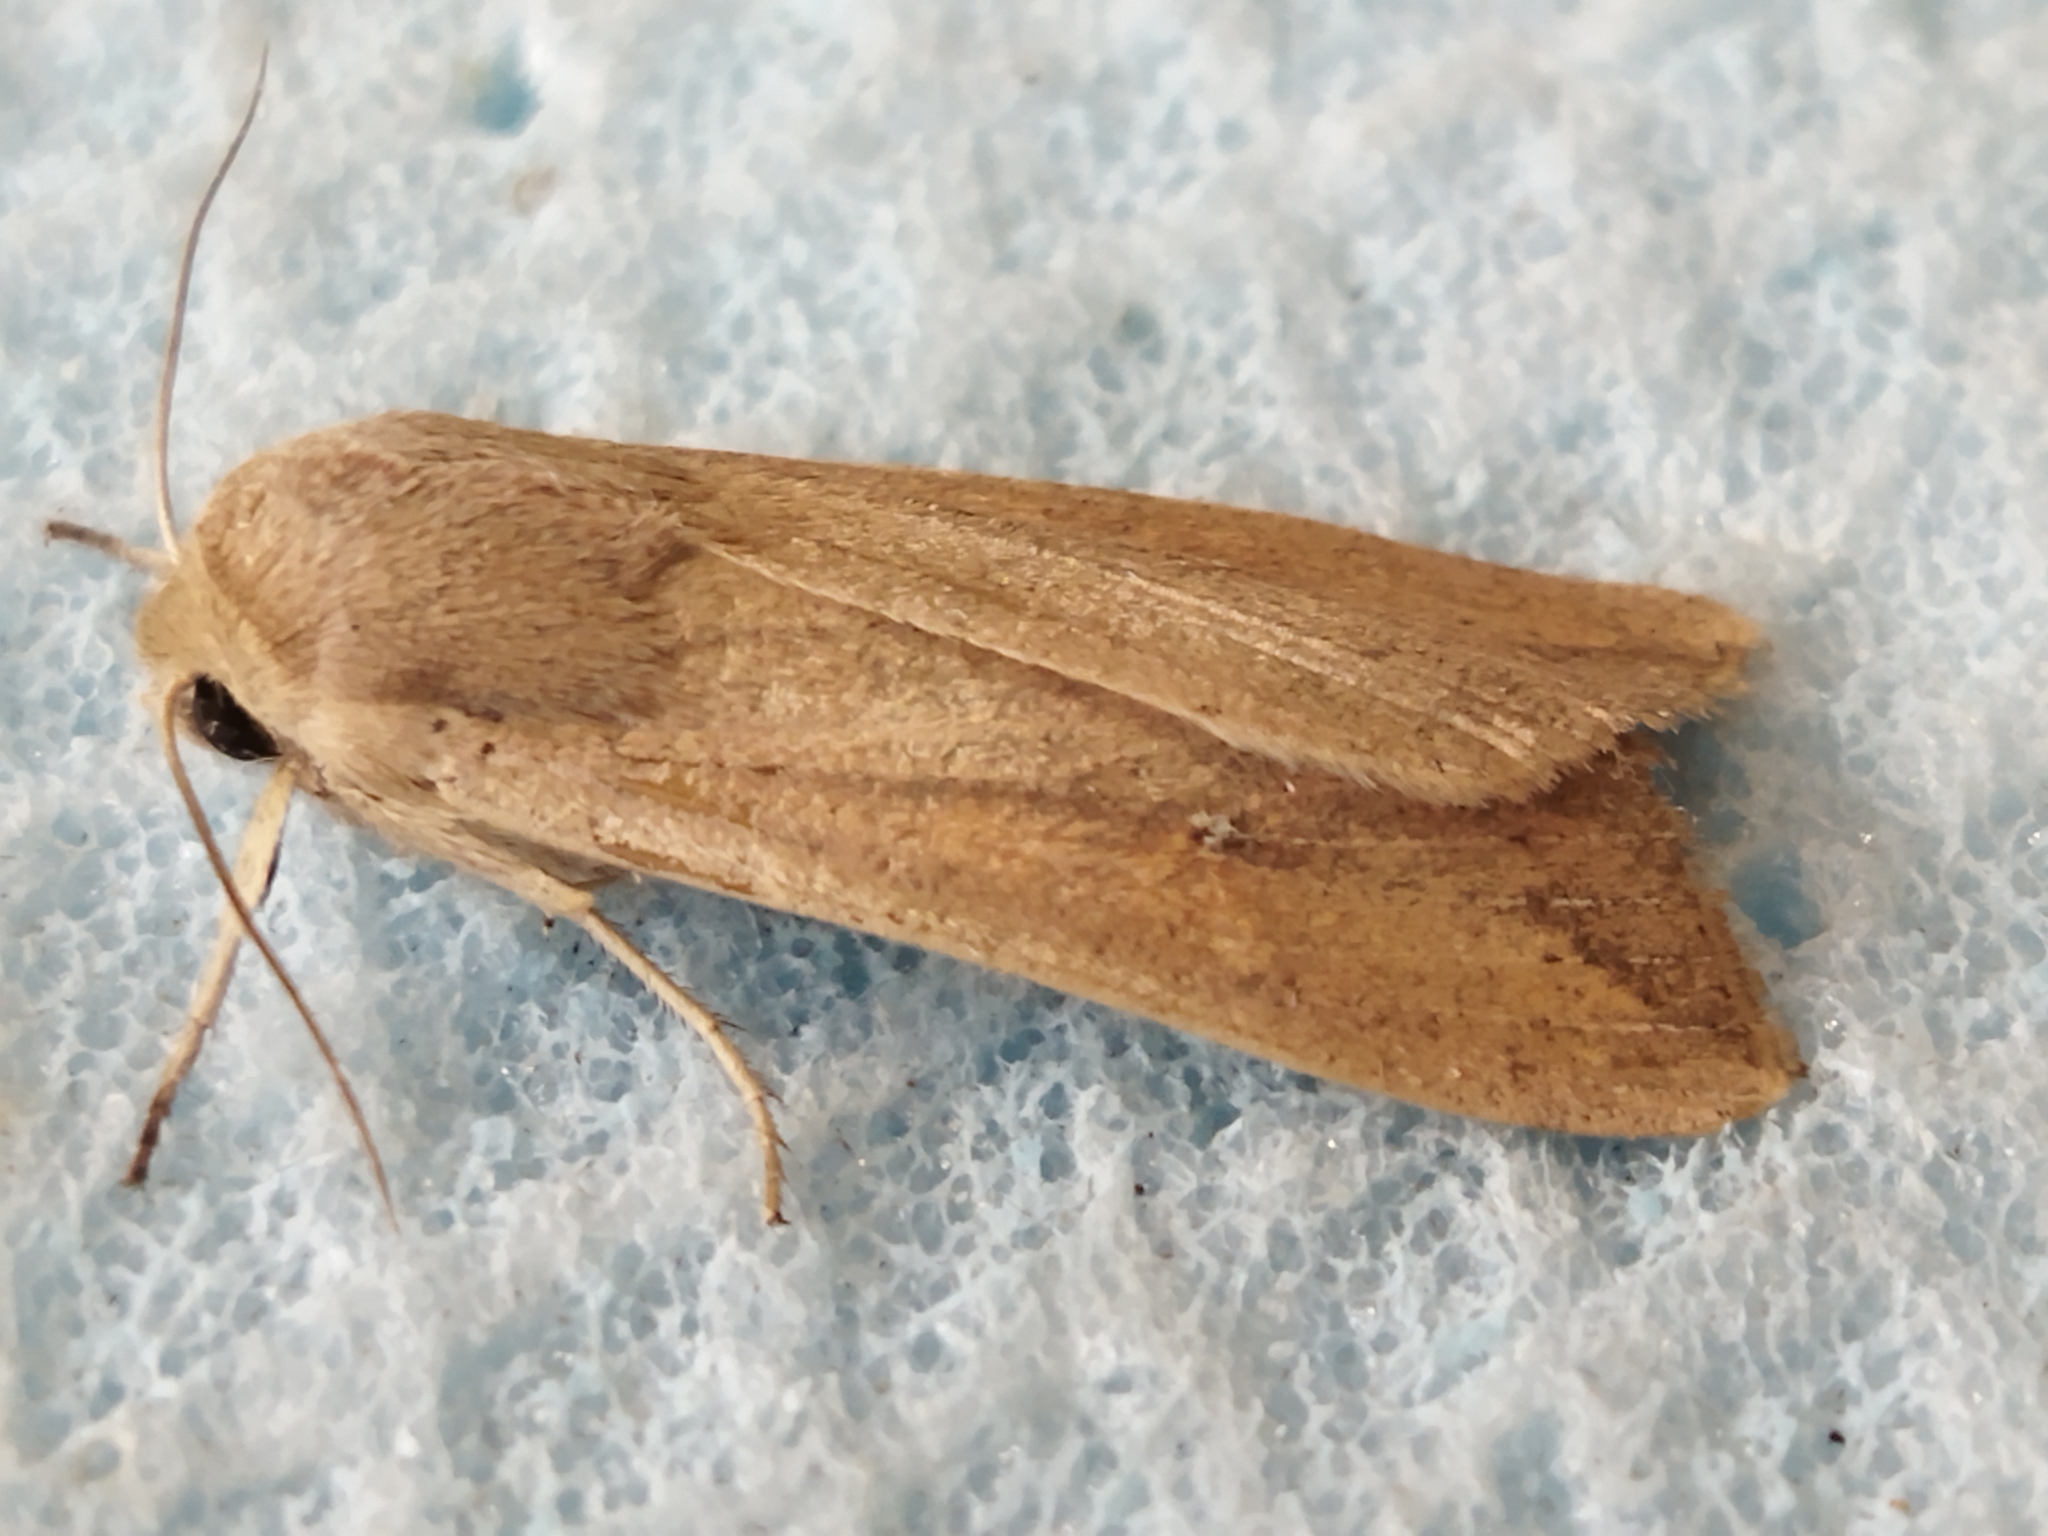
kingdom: Animalia
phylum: Arthropoda
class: Insecta
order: Lepidoptera
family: Noctuidae
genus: Mythimna
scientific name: Mythimna unipuncta
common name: White-speck
